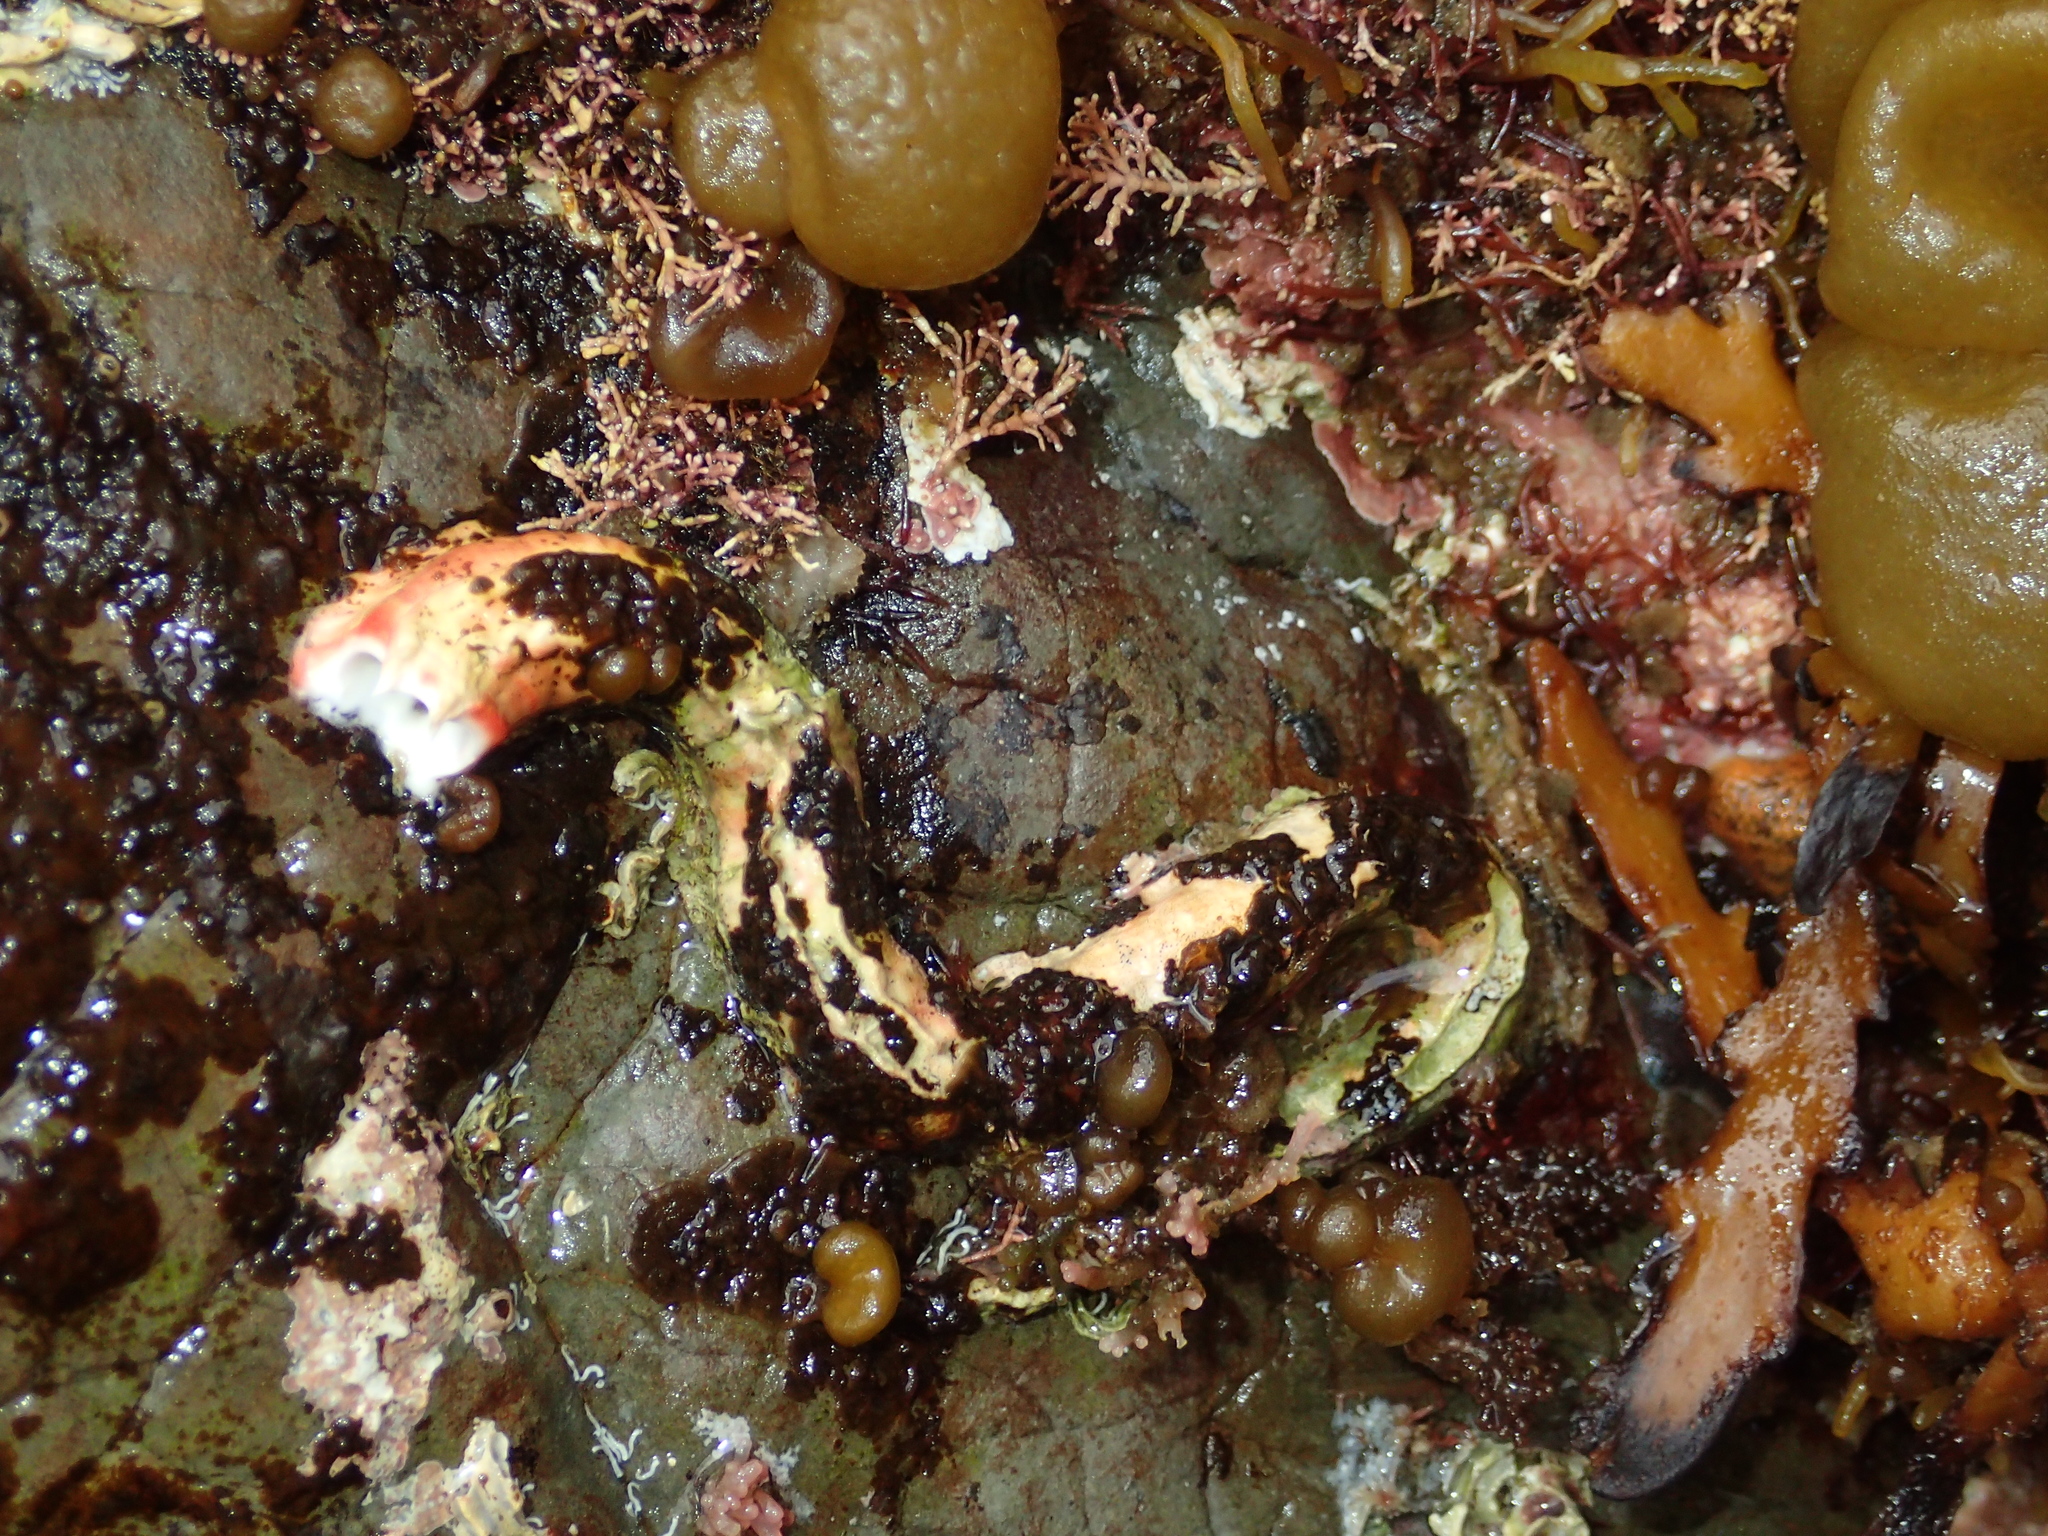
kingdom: Animalia
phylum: Annelida
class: Polychaeta
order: Sabellida
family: Serpulidae
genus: Galeolaria
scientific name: Galeolaria hystrix
